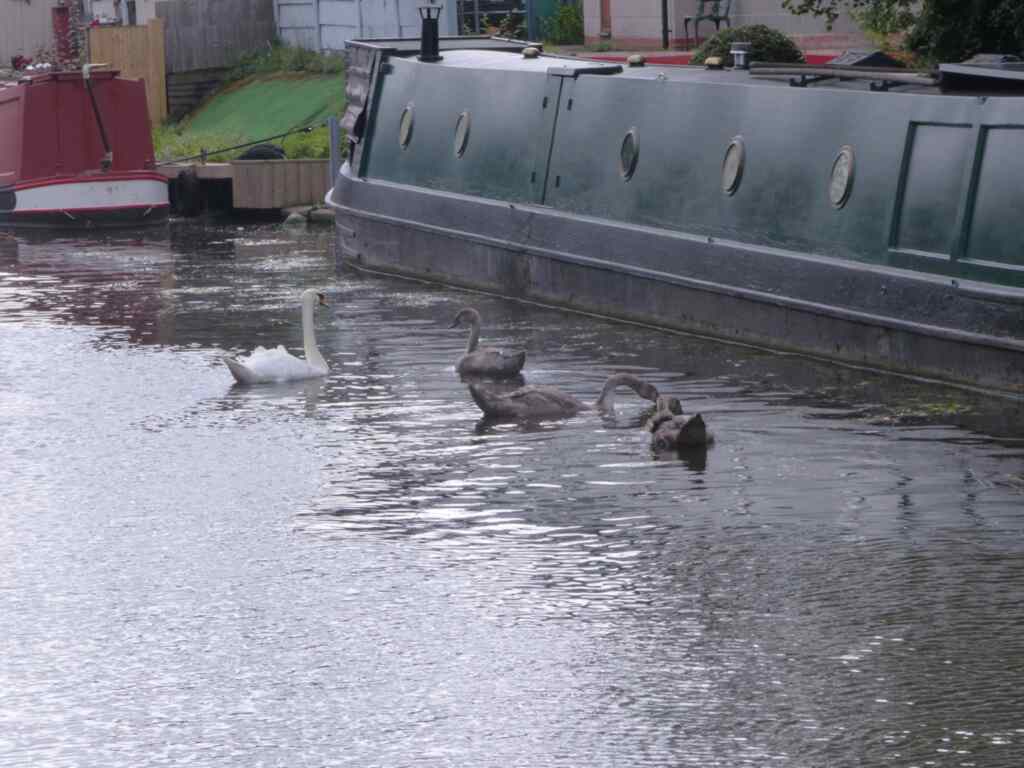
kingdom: Animalia
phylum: Chordata
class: Aves
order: Anseriformes
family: Anatidae
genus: Cygnus
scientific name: Cygnus olor
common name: Mute swan
